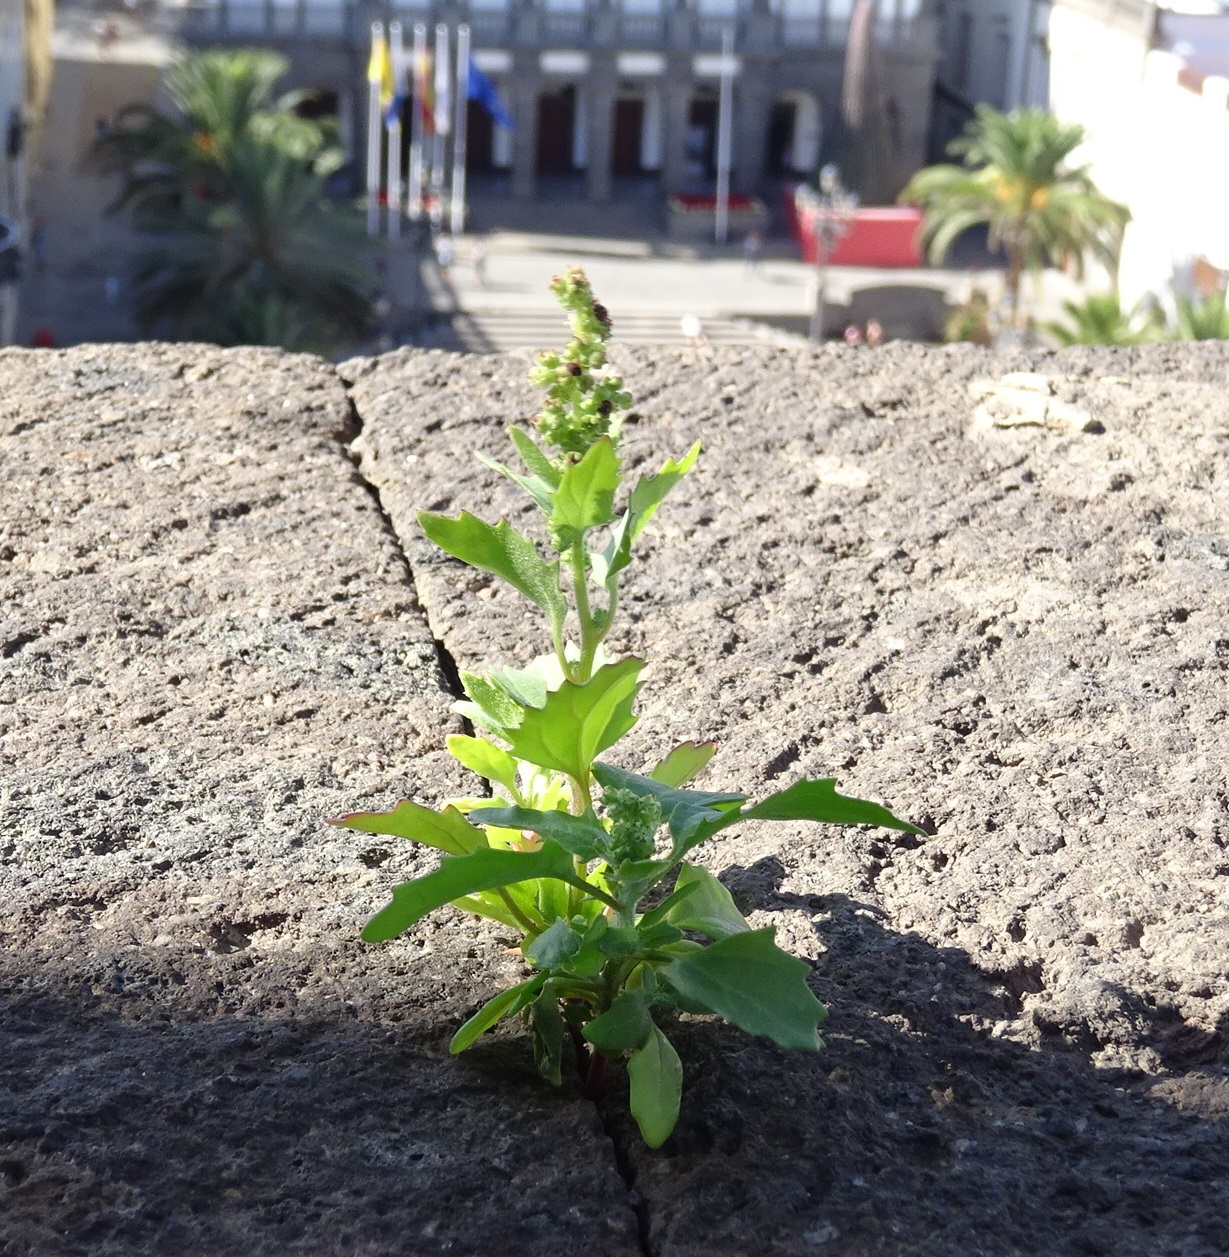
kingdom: Plantae
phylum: Tracheophyta
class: Magnoliopsida
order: Caryophyllales
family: Amaranthaceae
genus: Chenopodiastrum
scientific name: Chenopodiastrum murale
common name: Sowbane
